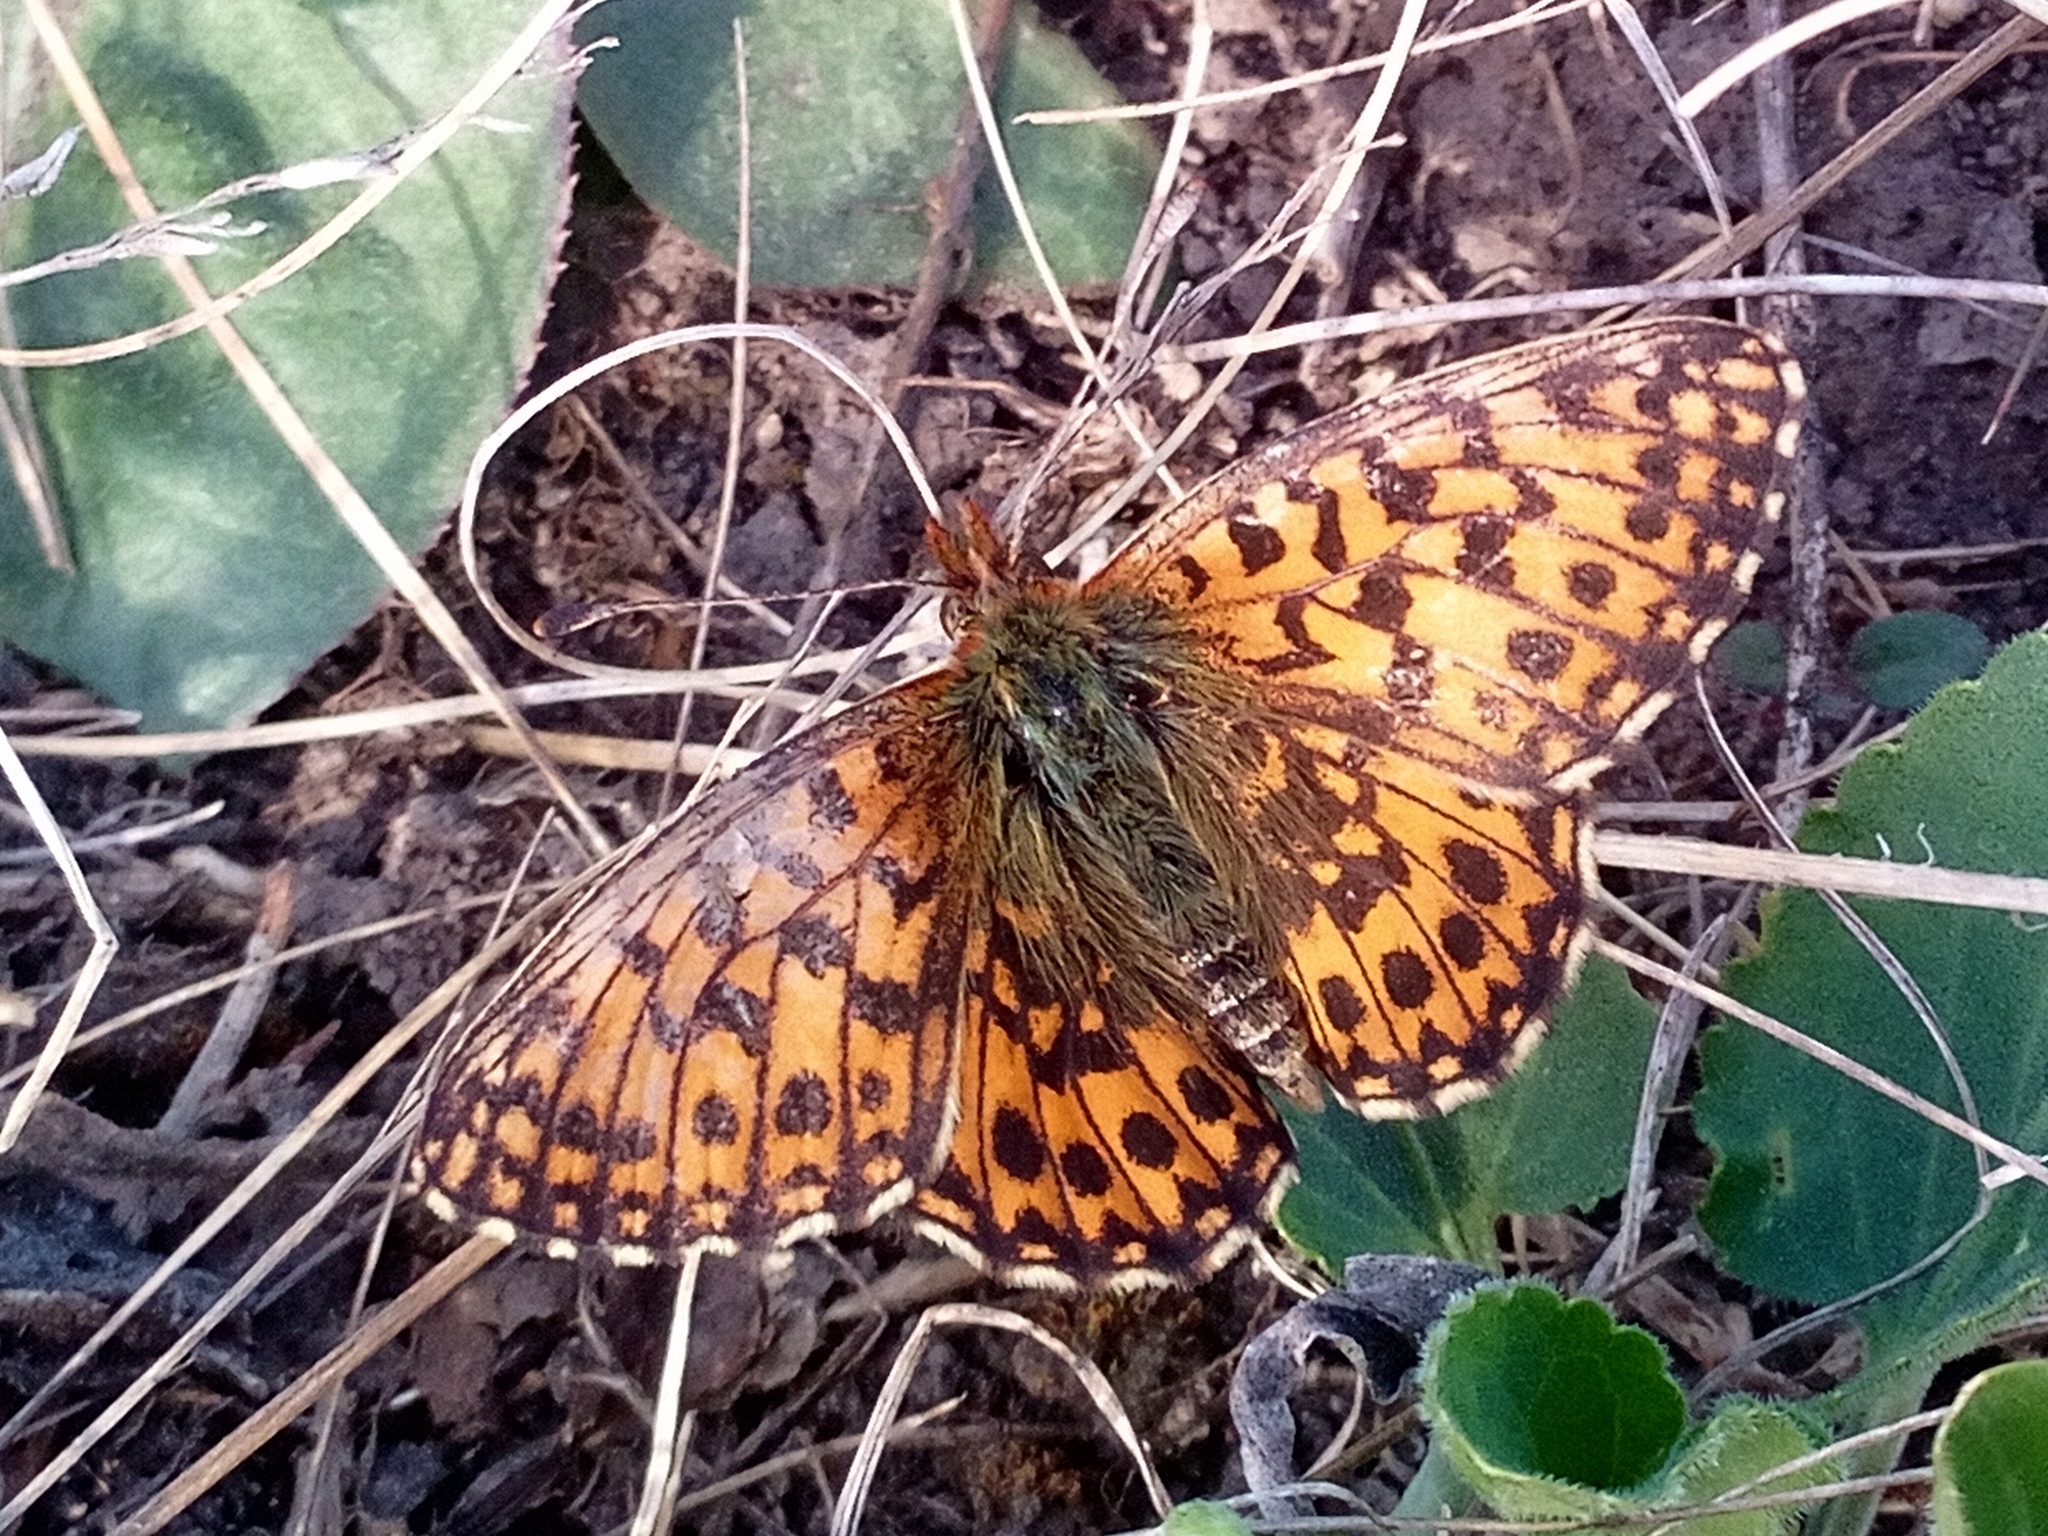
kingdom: Animalia
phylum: Arthropoda
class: Insecta
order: Lepidoptera
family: Nymphalidae
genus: Boloria
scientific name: Boloria dia
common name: Weaver's fritillary
